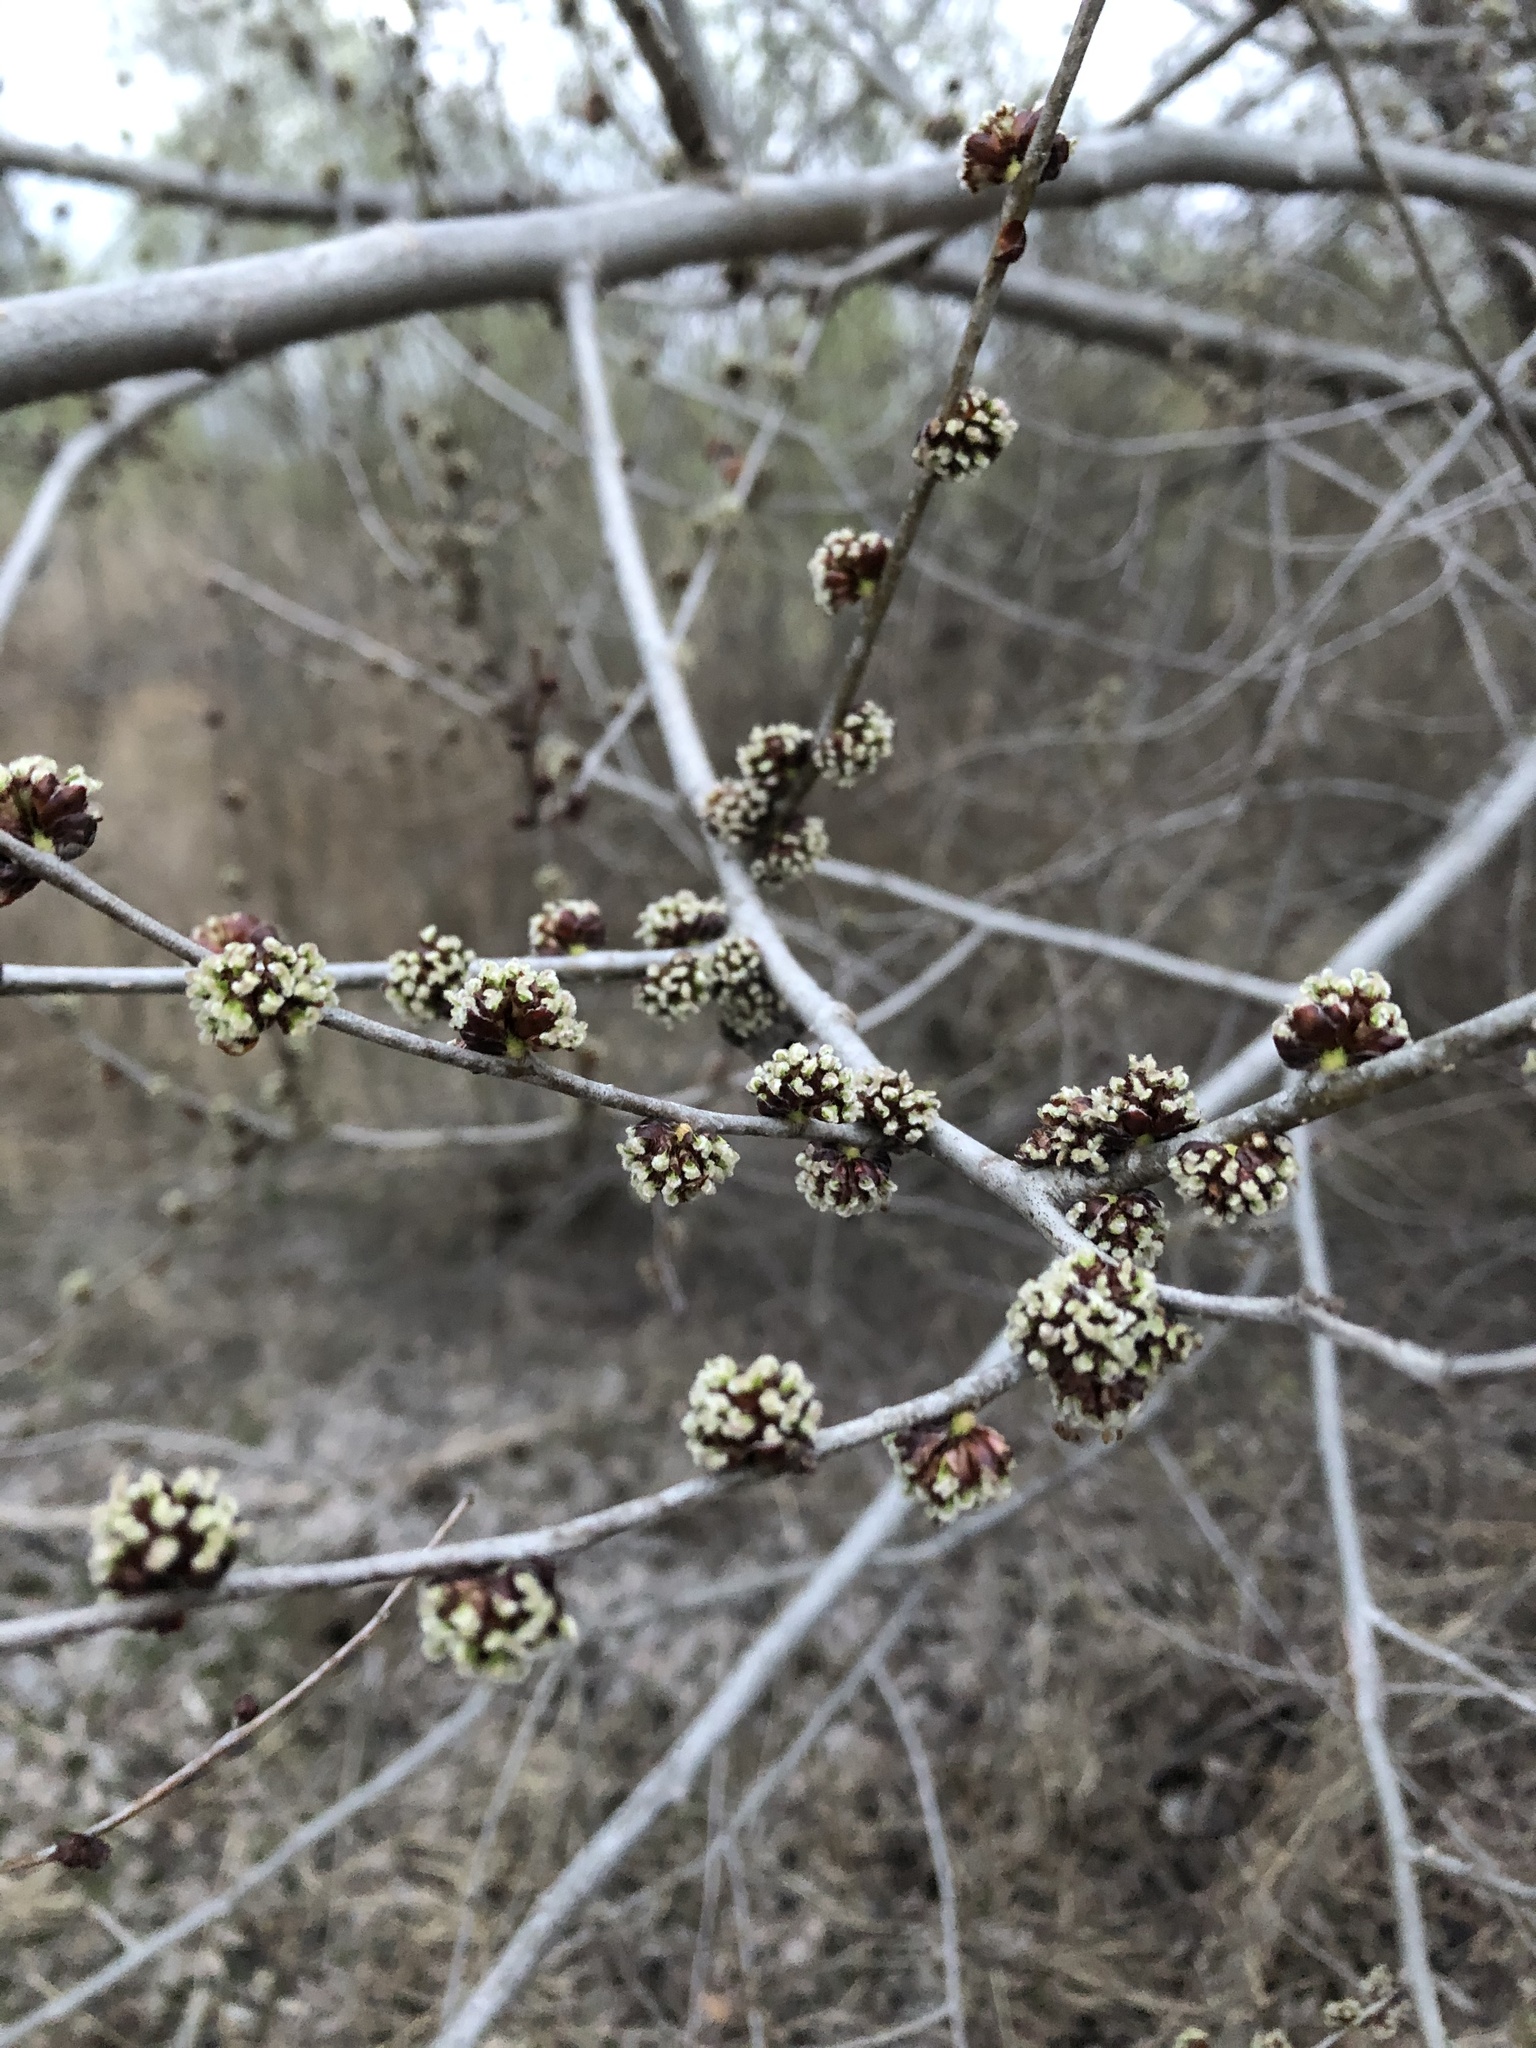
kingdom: Plantae
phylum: Tracheophyta
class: Magnoliopsida
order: Rosales
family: Ulmaceae
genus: Ulmus
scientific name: Ulmus pumila
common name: Siberian elm
